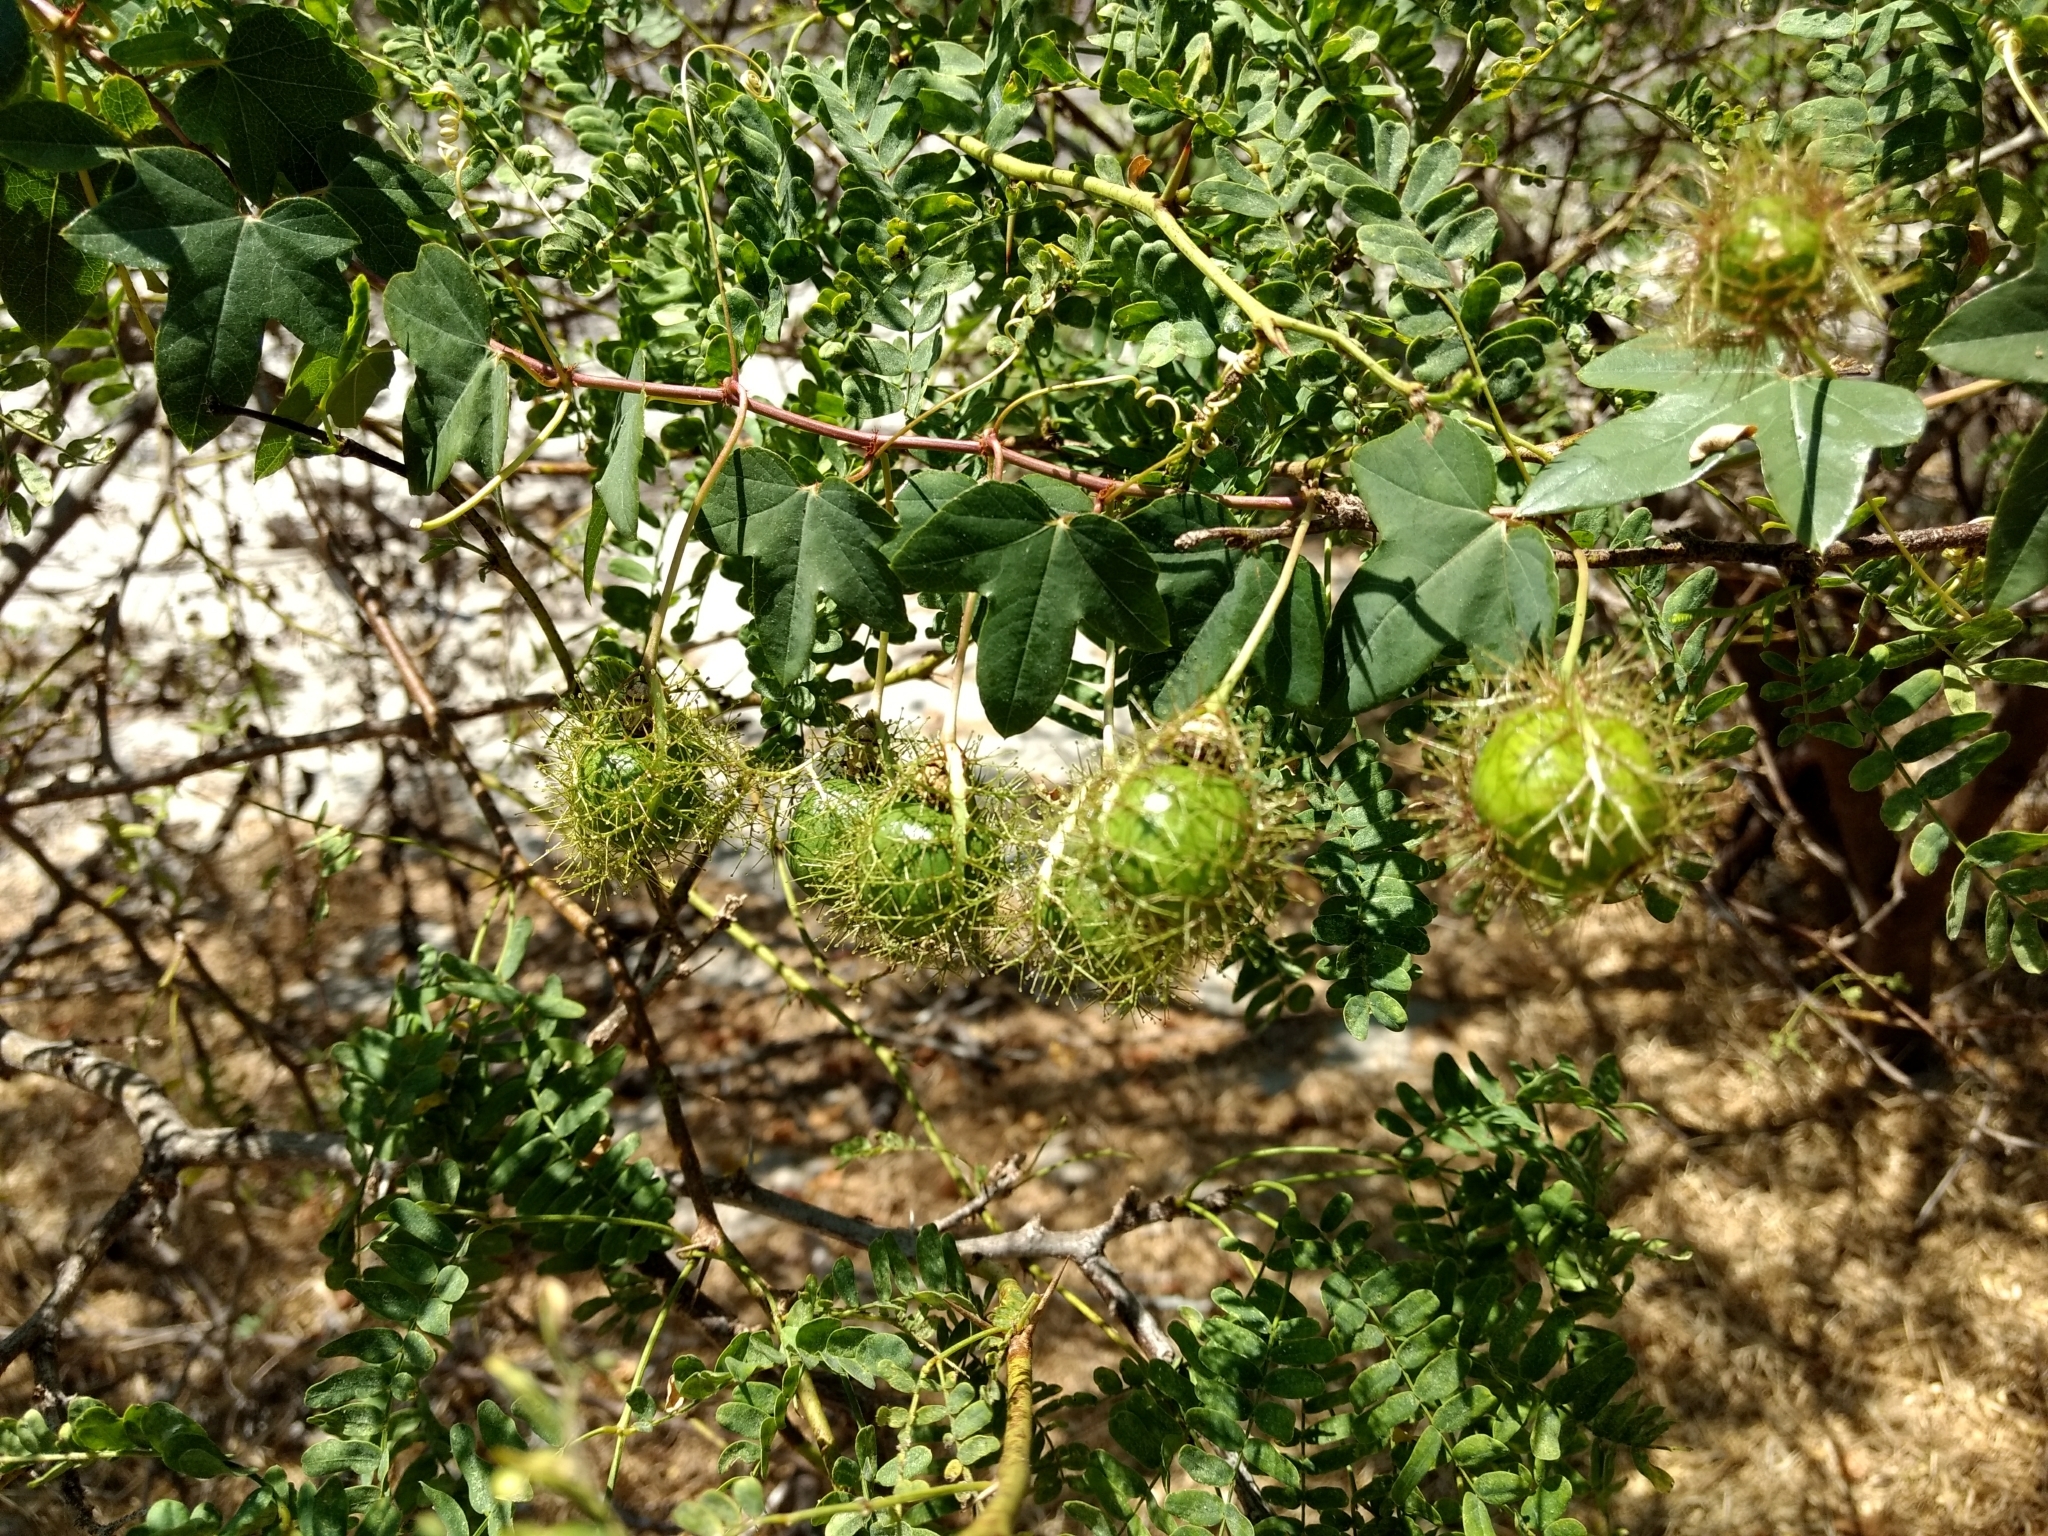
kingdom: Plantae
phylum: Tracheophyta
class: Magnoliopsida
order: Malpighiales
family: Passifloraceae
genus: Passiflora
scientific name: Passiflora ciliata
